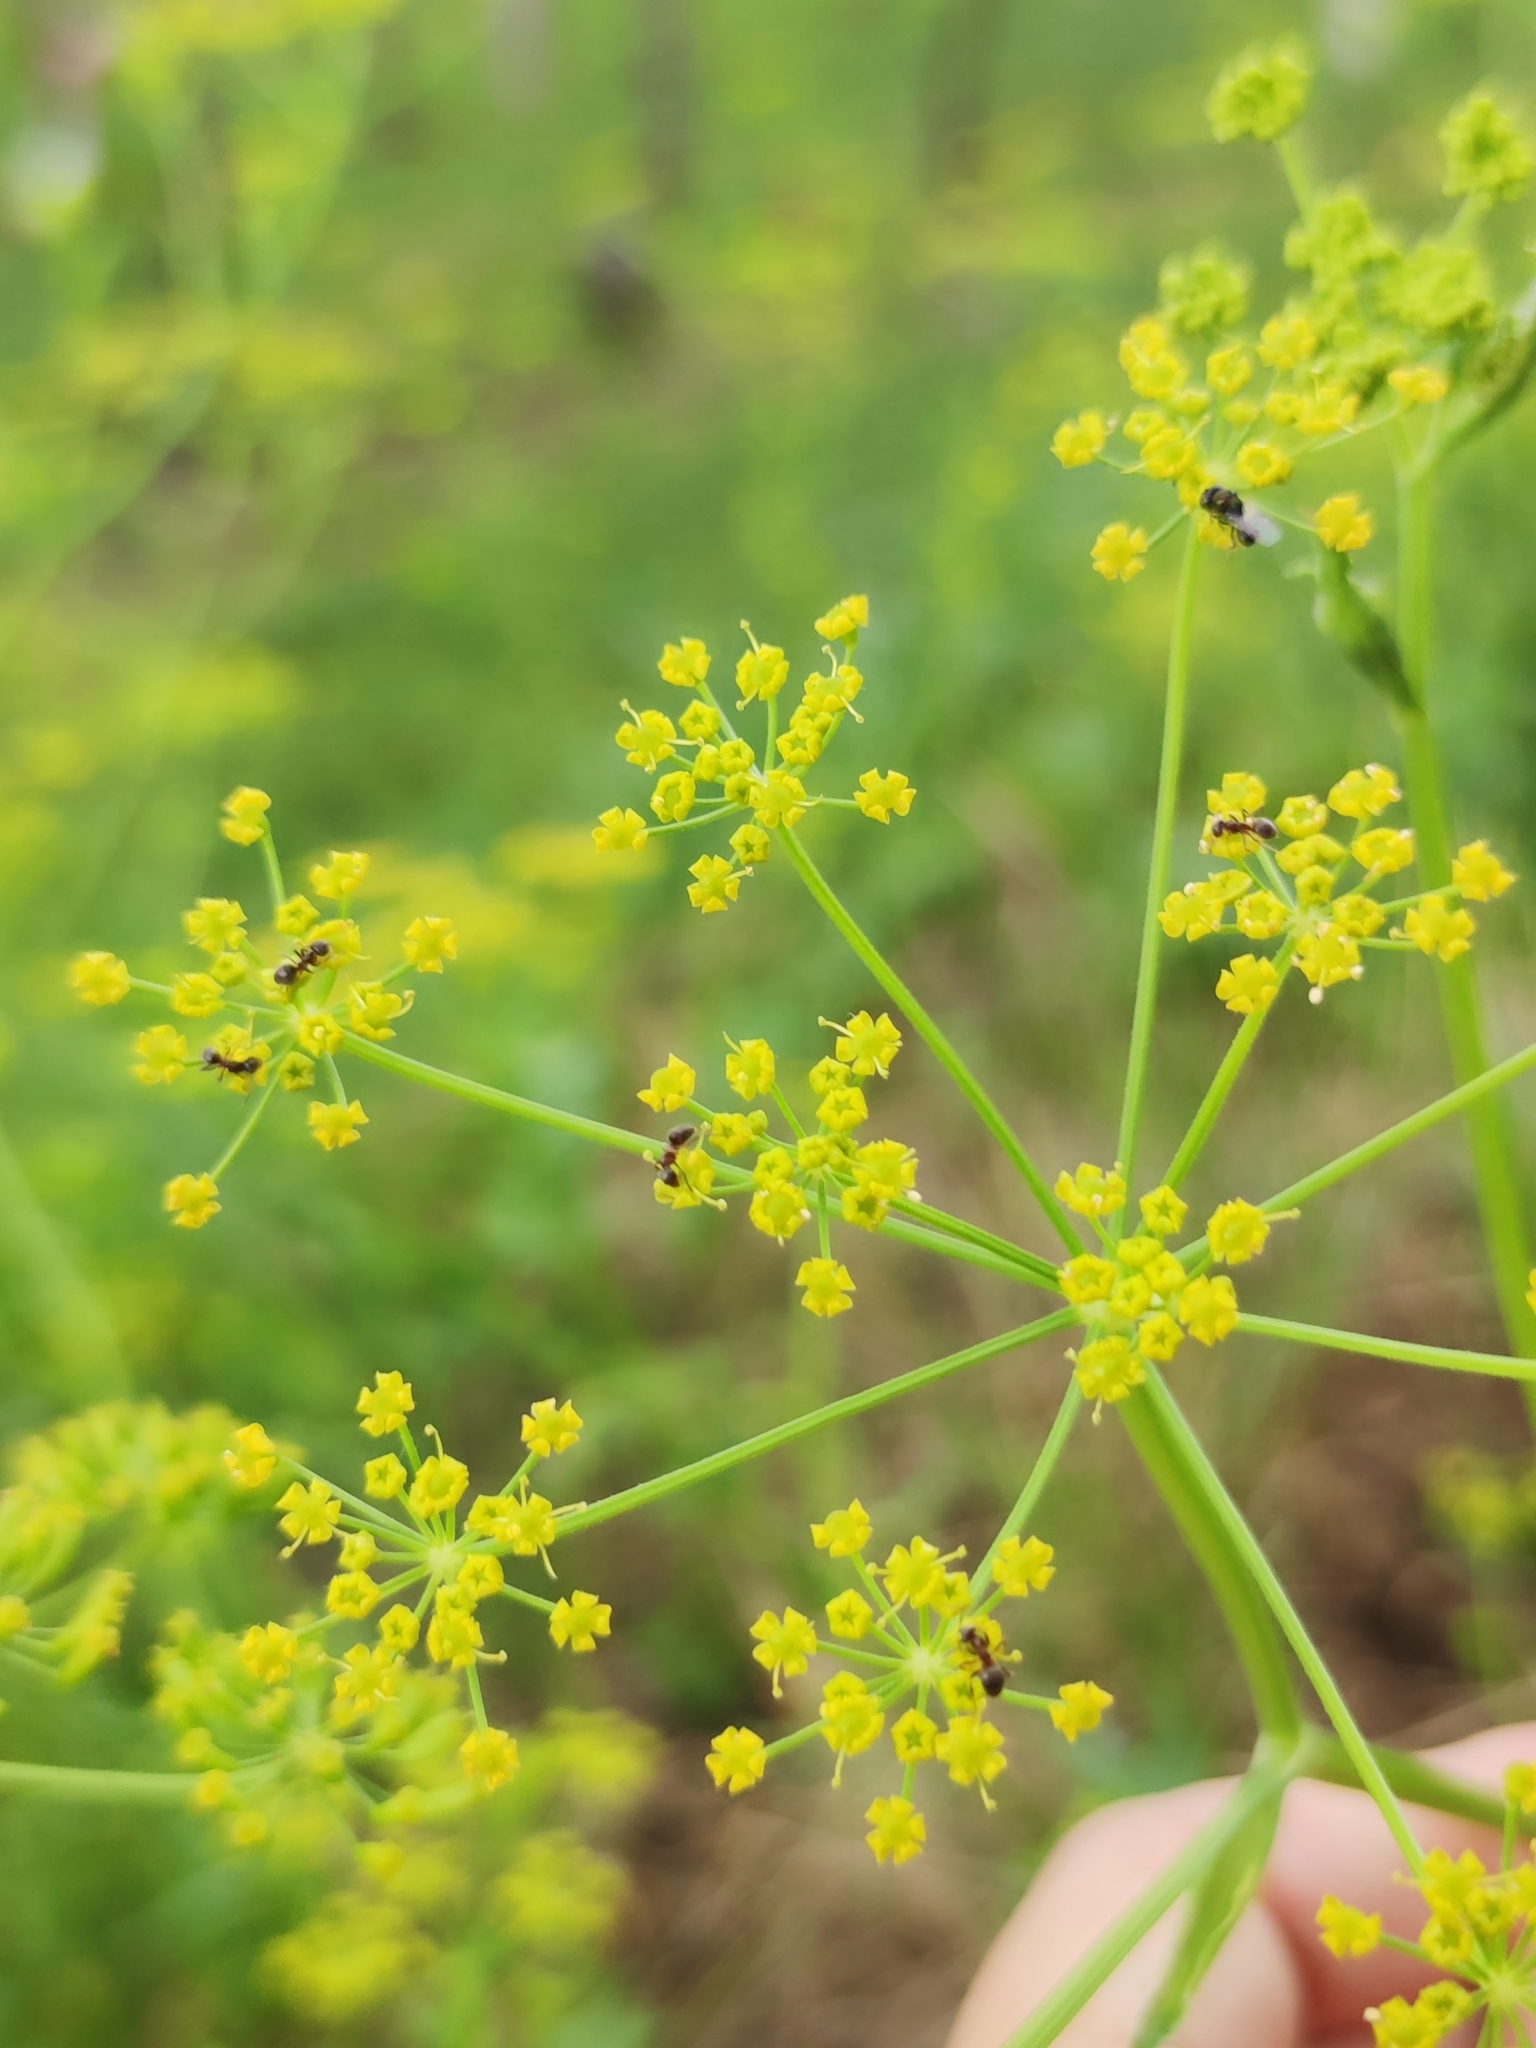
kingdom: Plantae
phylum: Tracheophyta
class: Magnoliopsida
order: Apiales
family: Apiaceae
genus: Pastinaca
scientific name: Pastinaca sativa
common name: Wild parsnip
